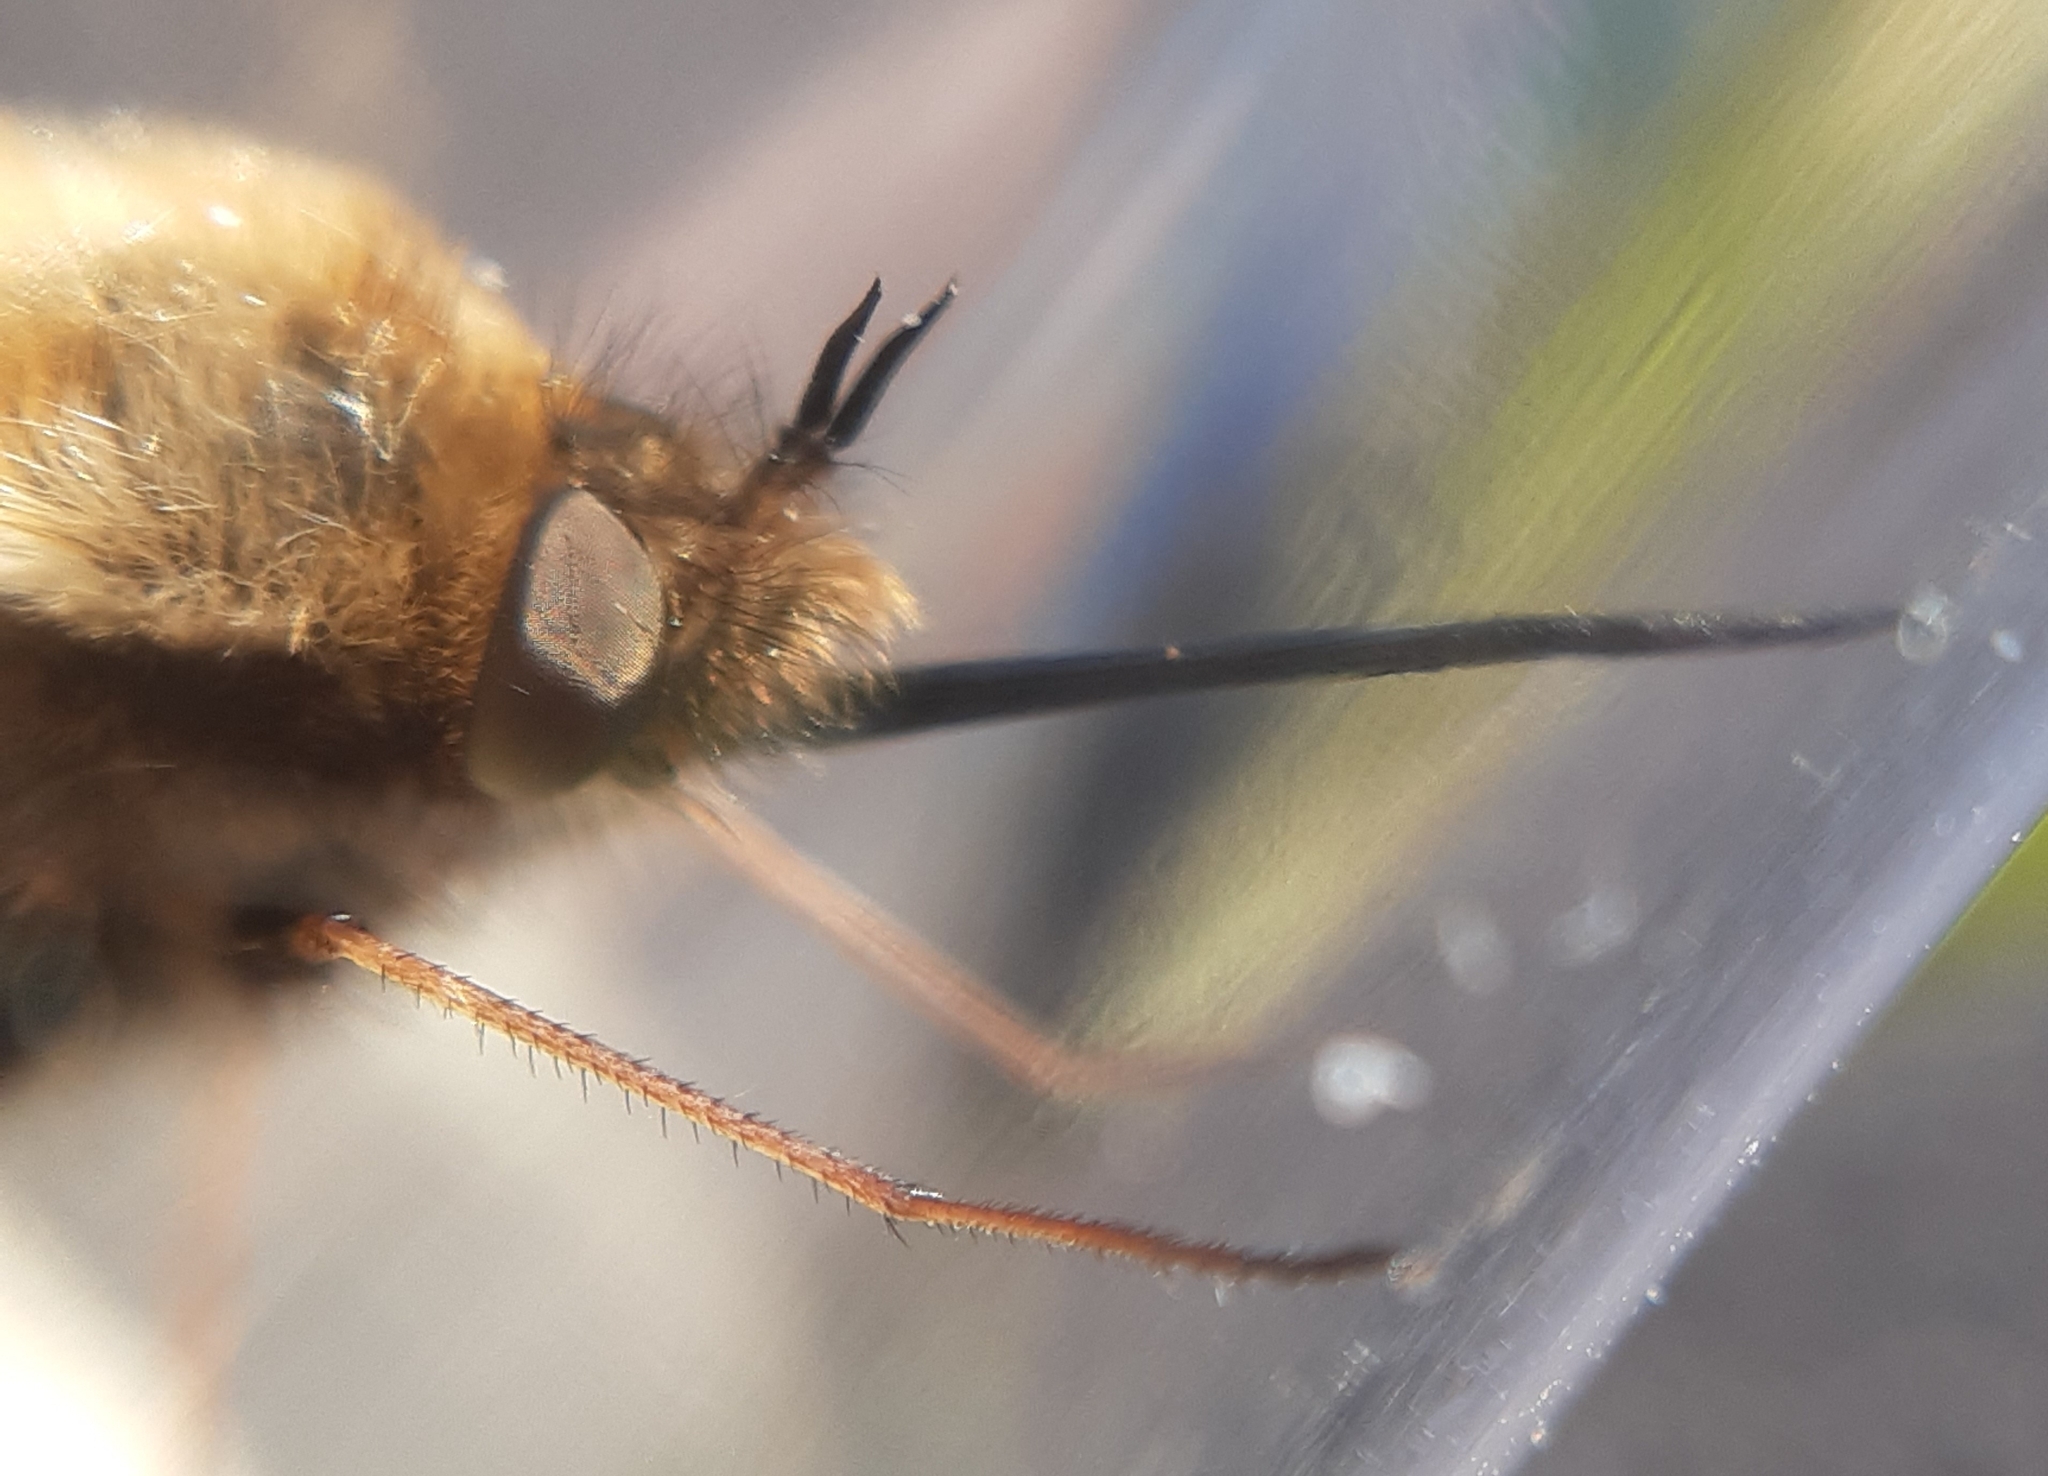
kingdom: Animalia
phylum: Arthropoda
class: Insecta
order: Diptera
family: Bombyliidae
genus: Bombylius
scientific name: Bombylius discolor
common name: Dotted bee-fly
